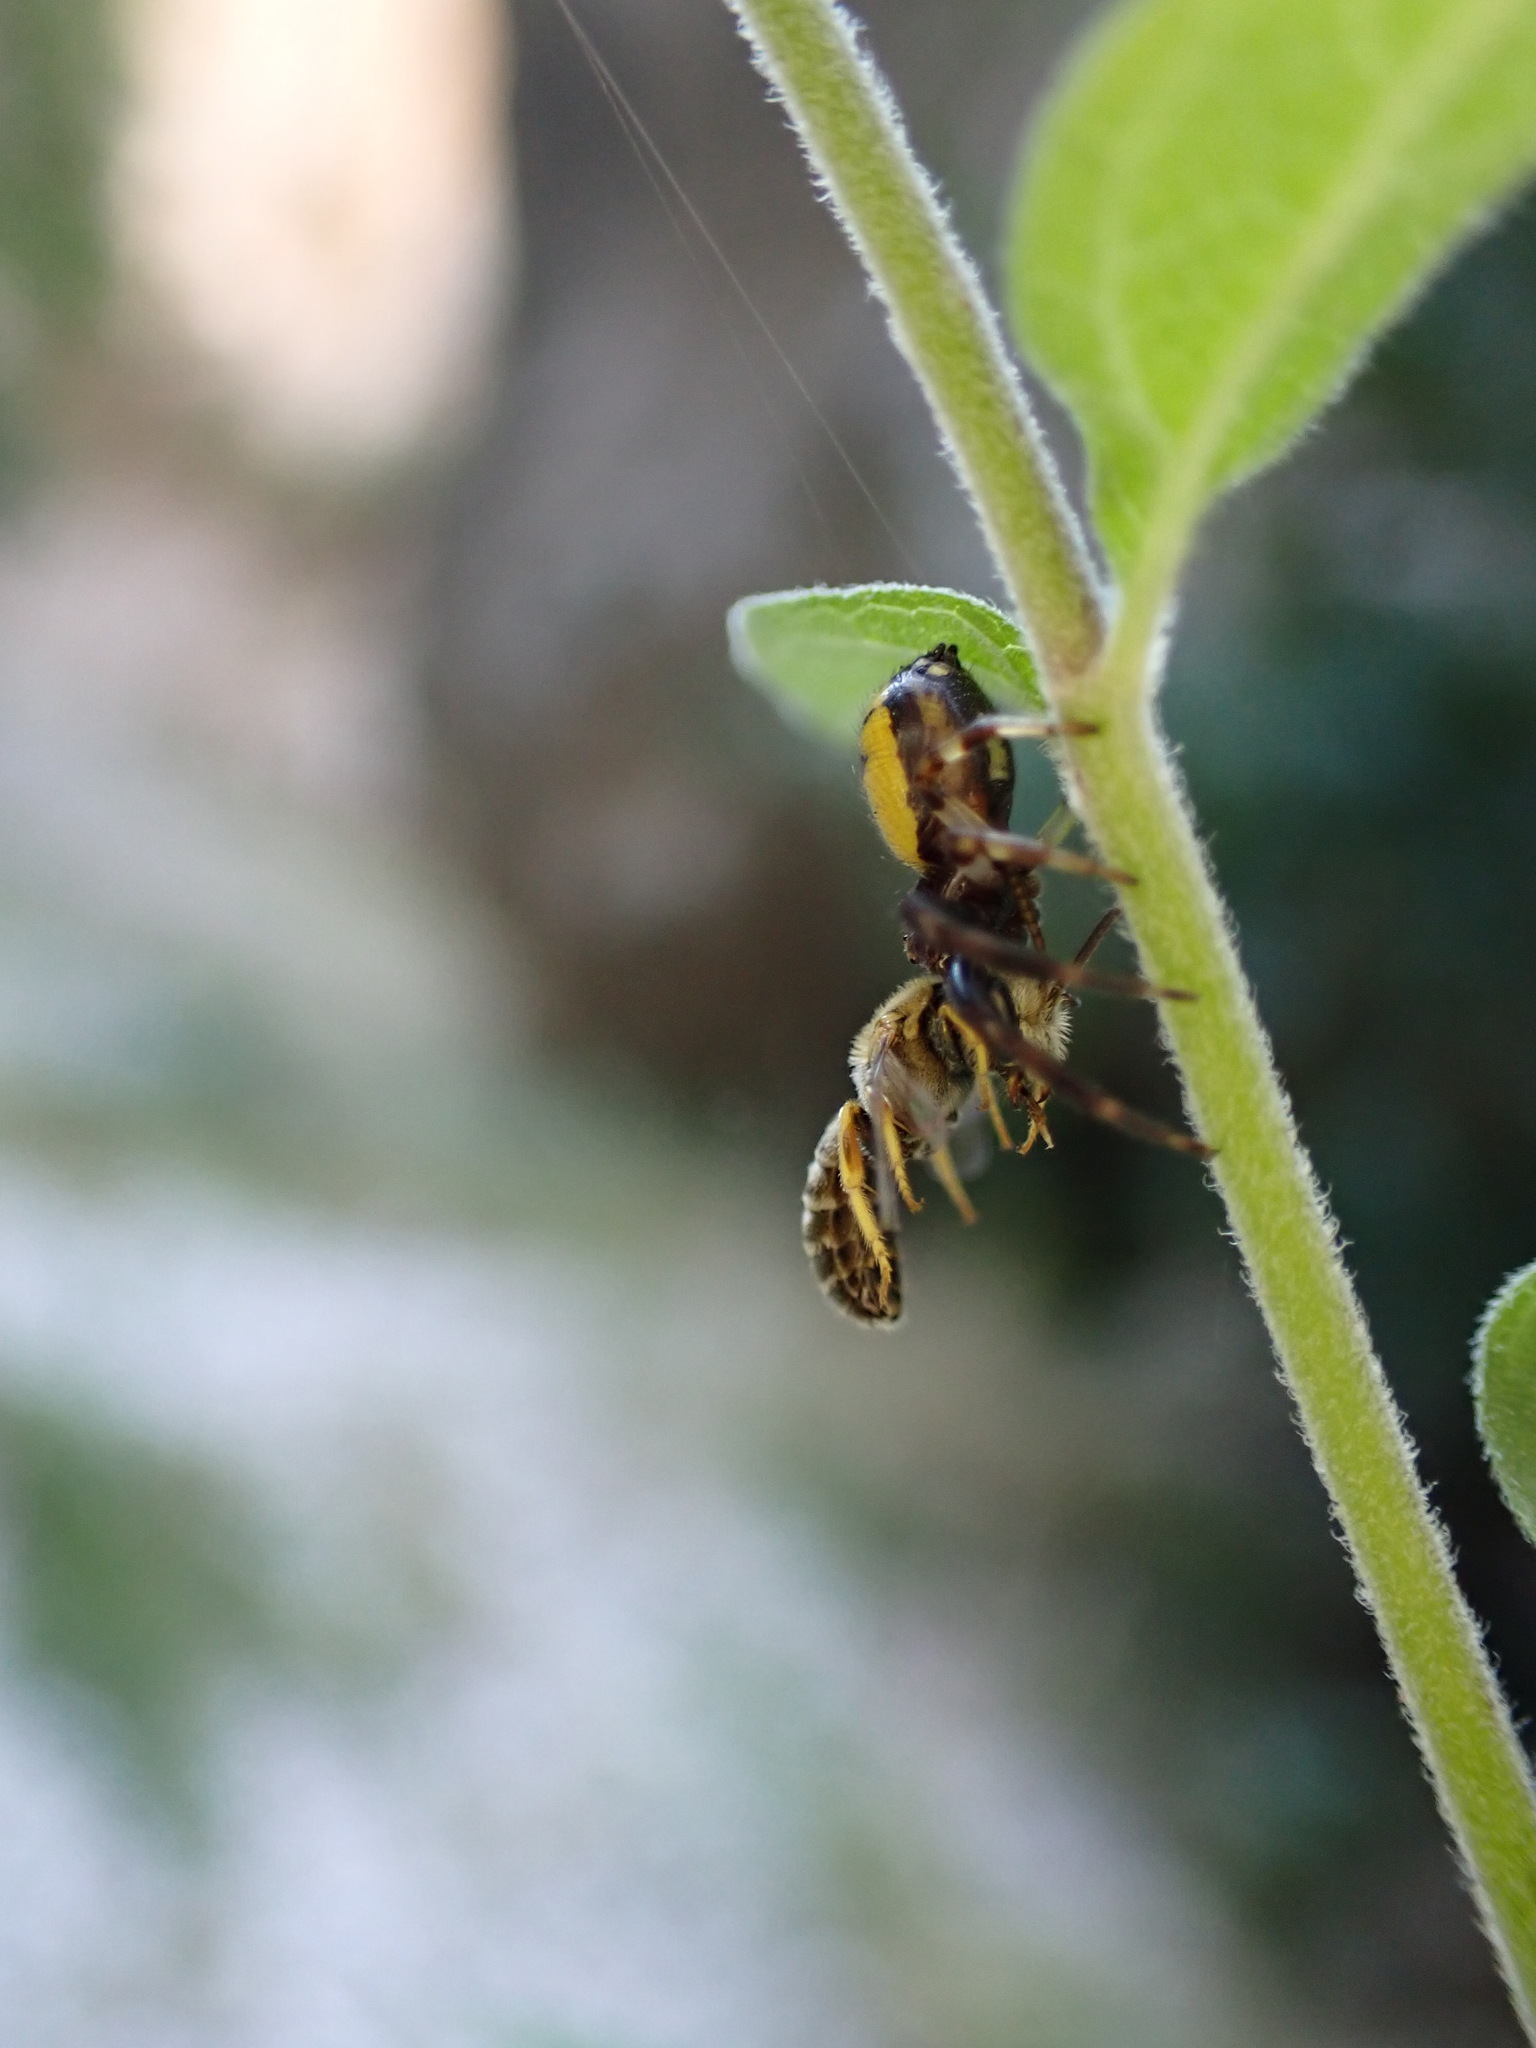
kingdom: Animalia
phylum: Arthropoda
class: Arachnida
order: Araneae
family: Thomisidae
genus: Synema
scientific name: Synema globosum
